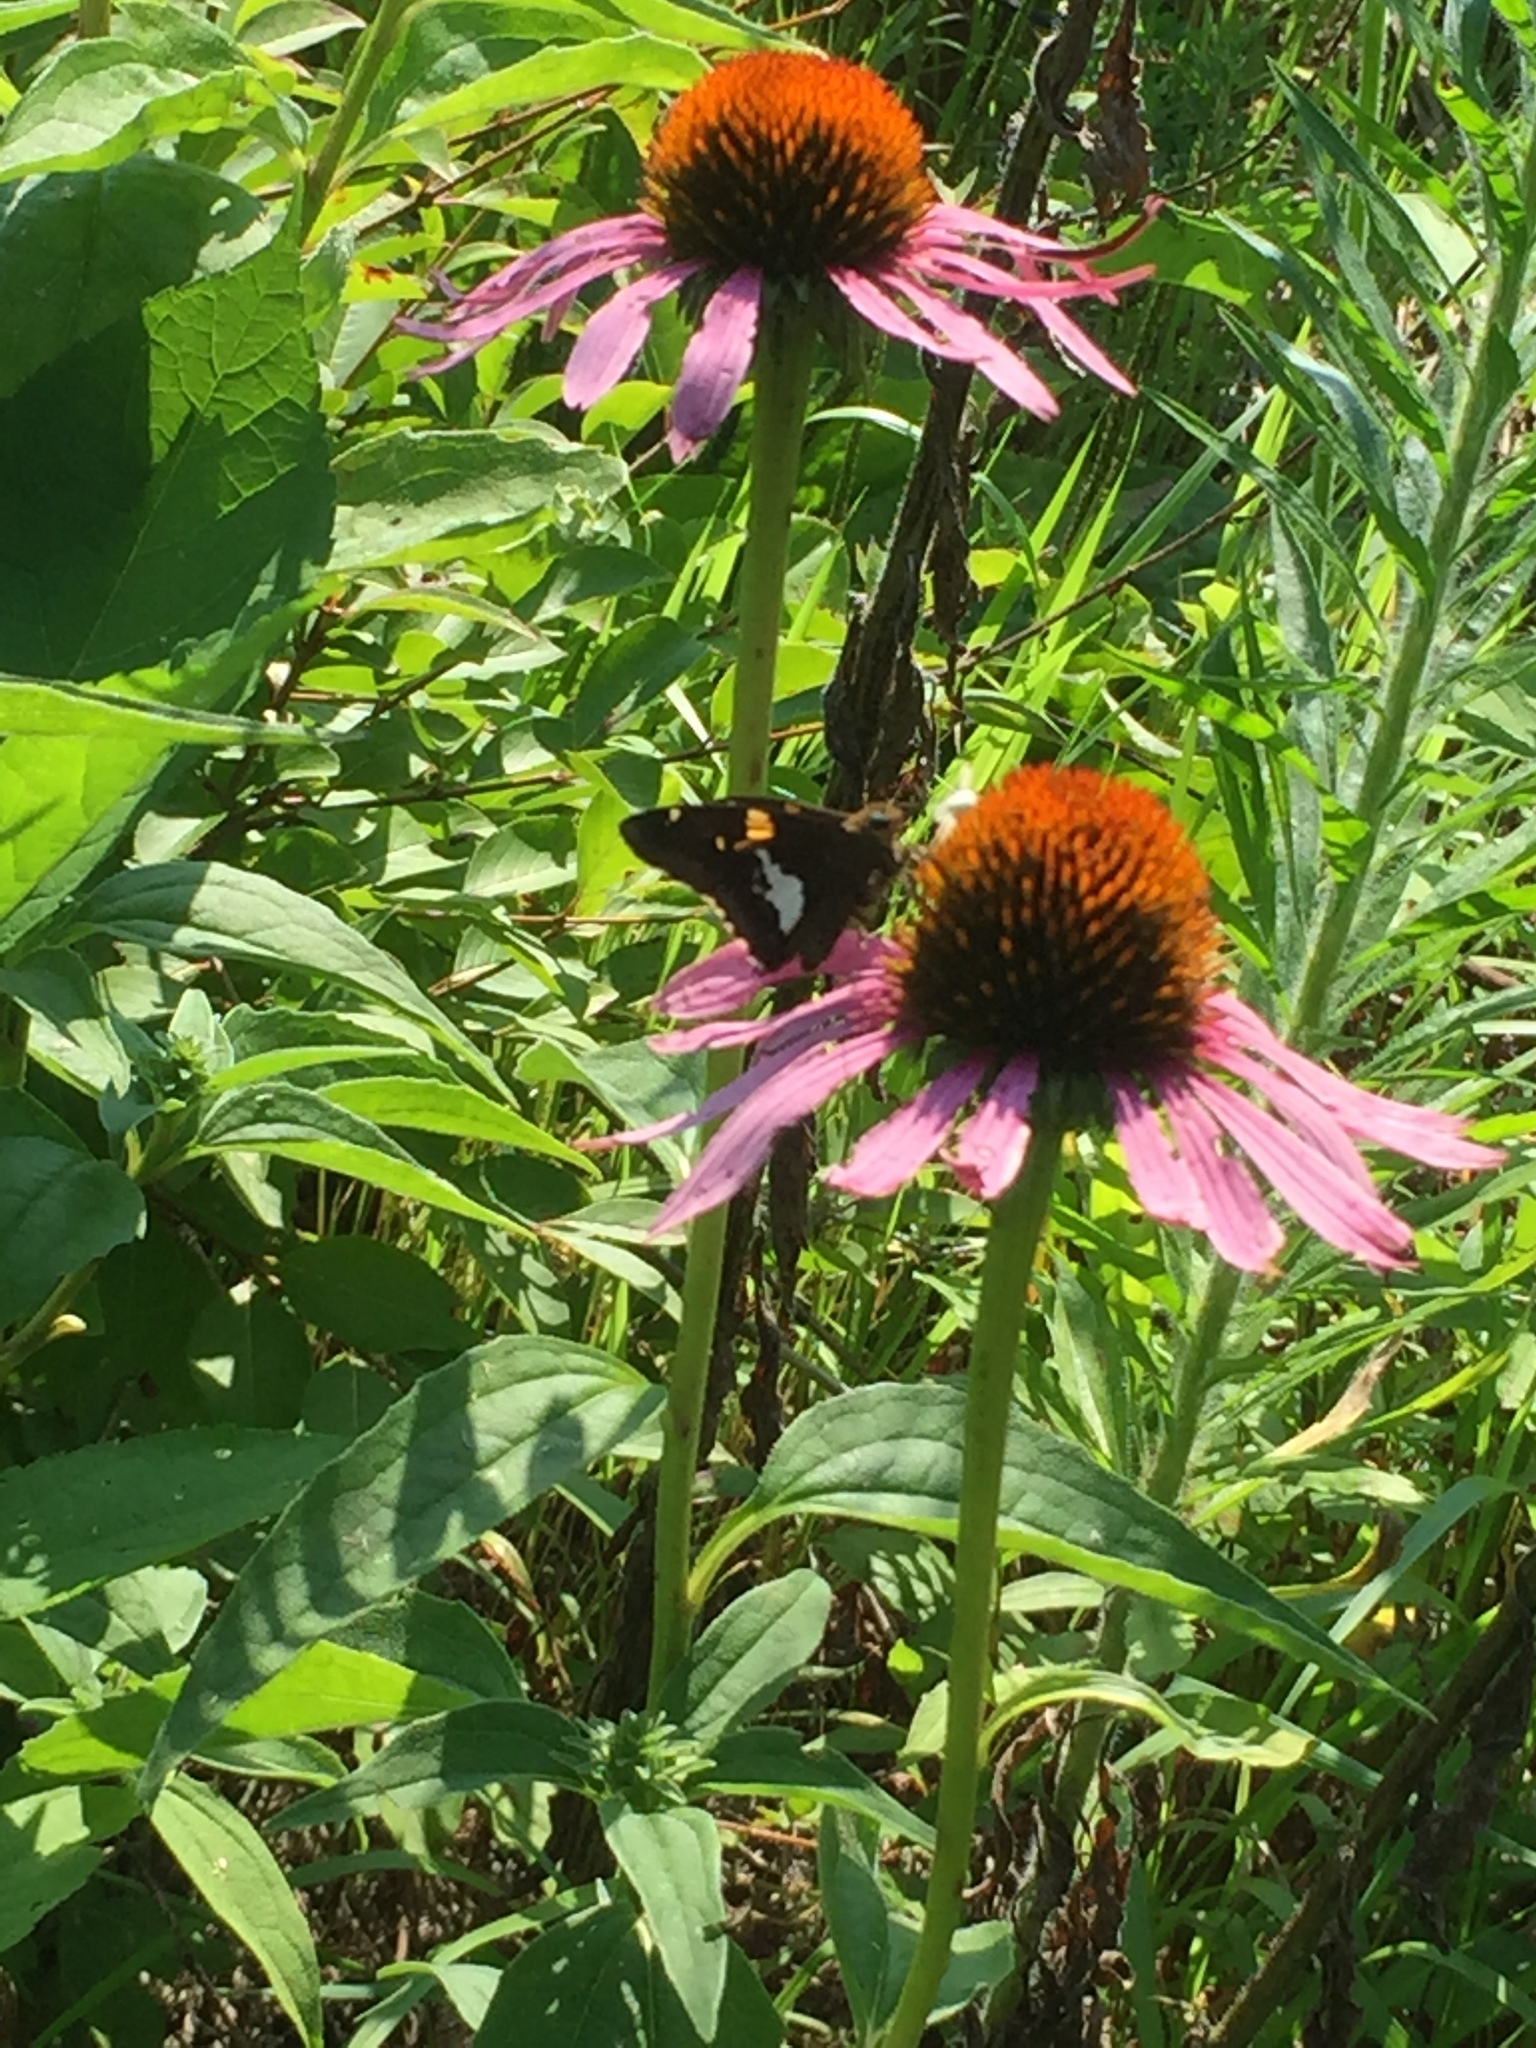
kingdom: Animalia
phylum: Arthropoda
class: Insecta
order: Lepidoptera
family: Hesperiidae
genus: Epargyreus
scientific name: Epargyreus clarus
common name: Silver-spotted skipper
